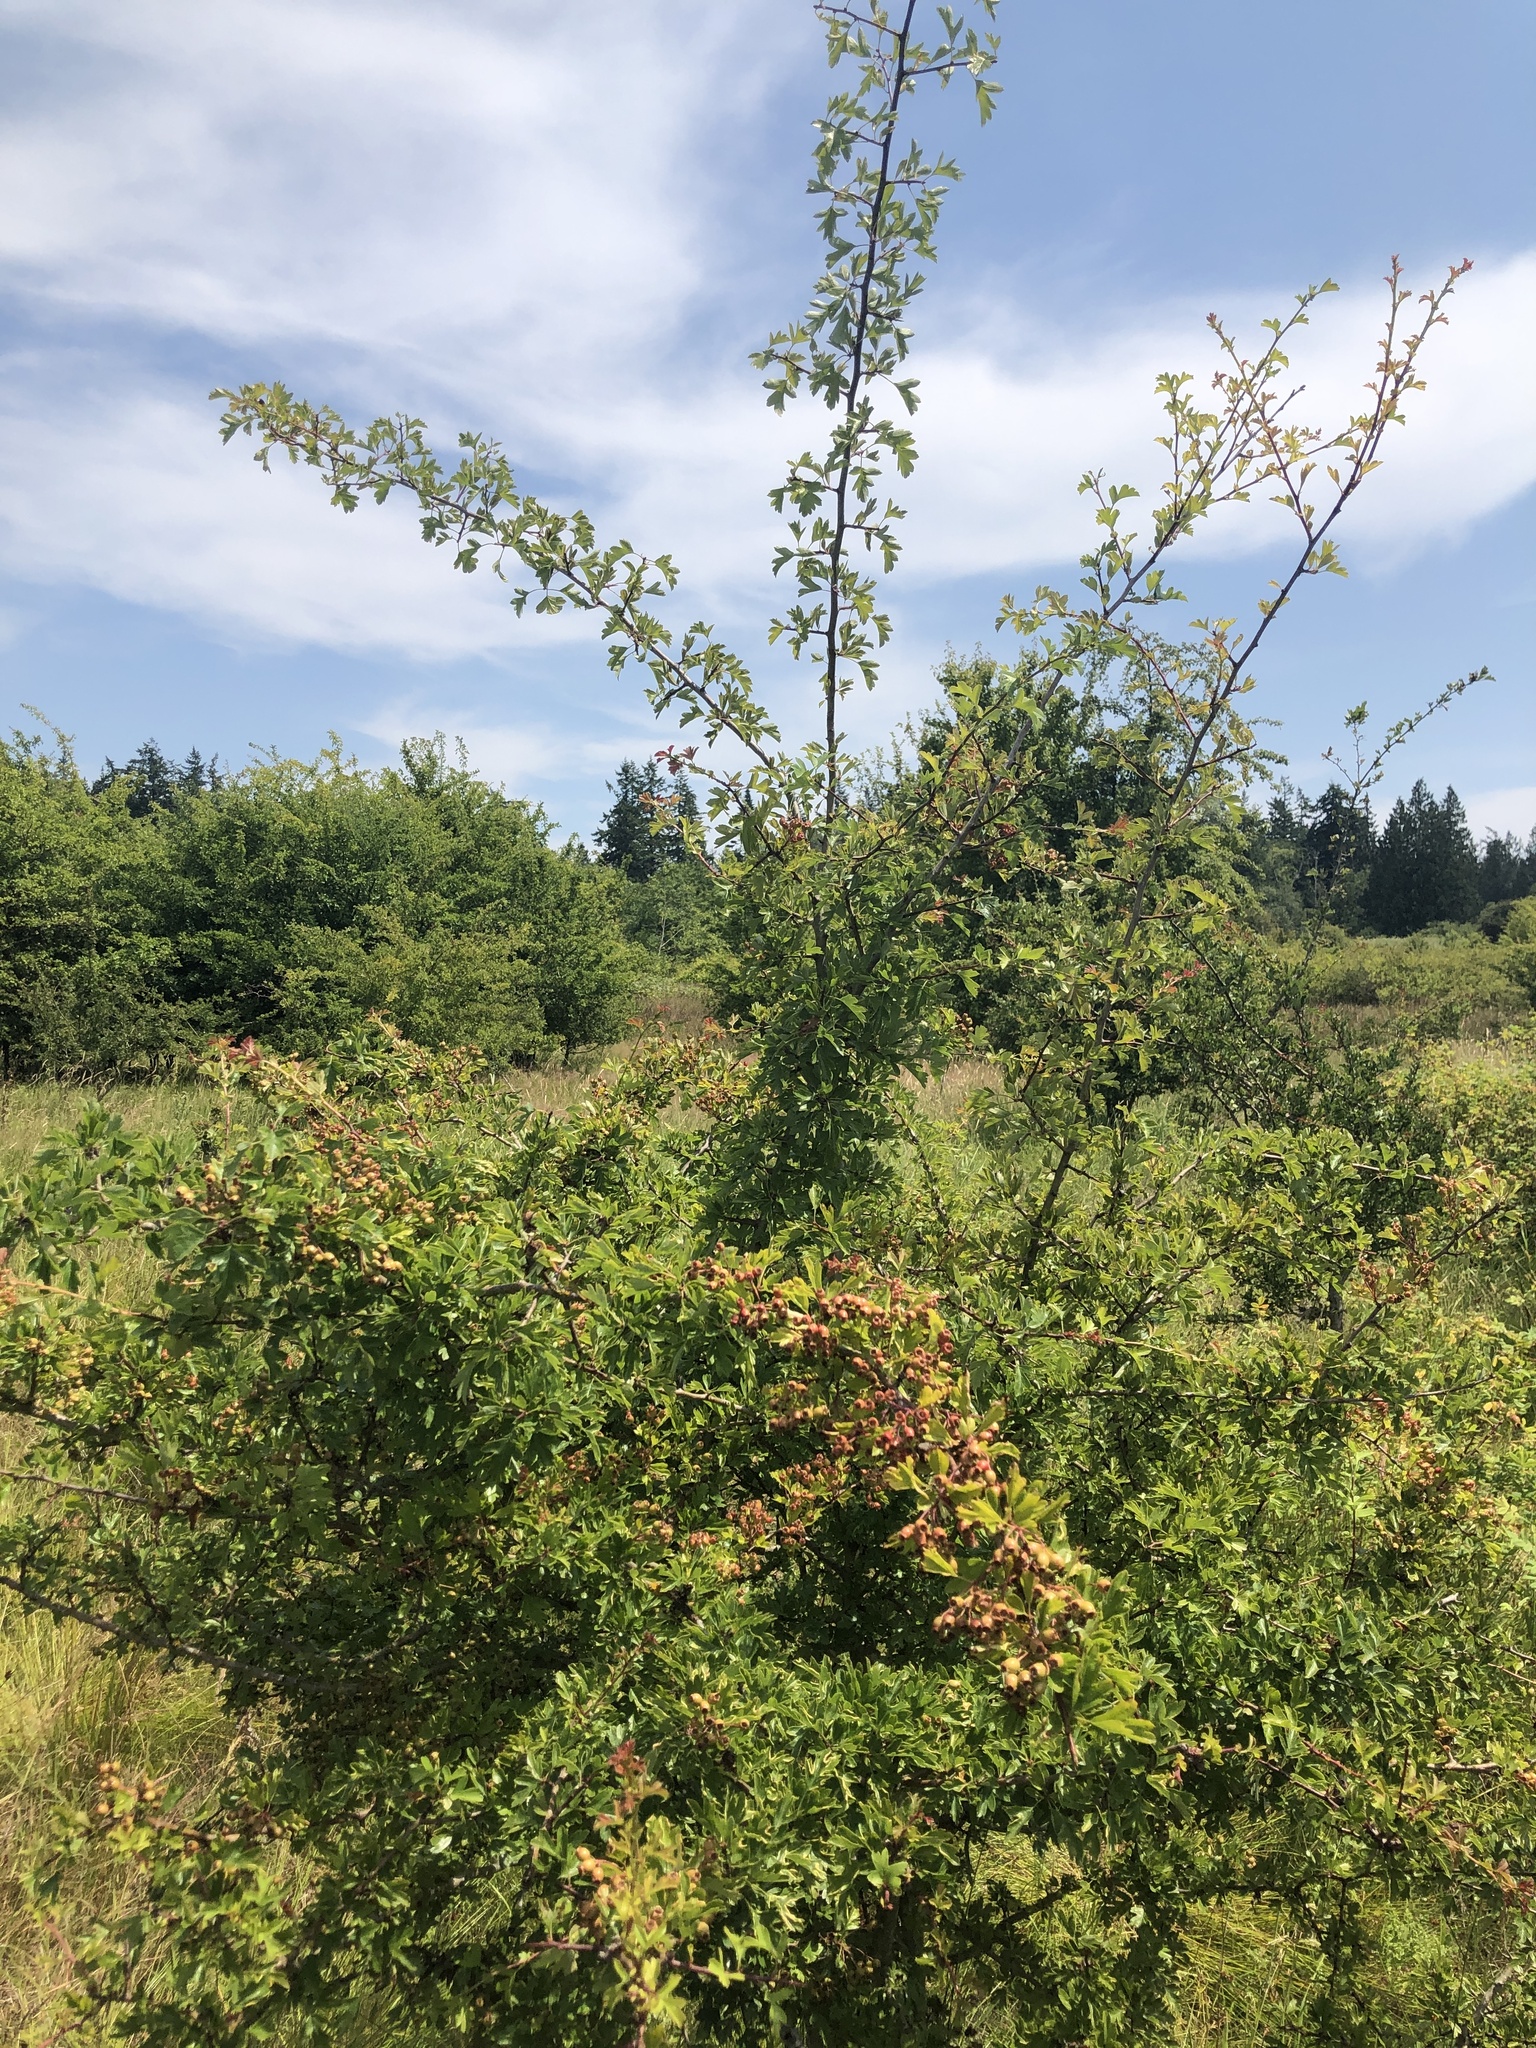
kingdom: Plantae
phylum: Tracheophyta
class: Magnoliopsida
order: Rosales
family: Rosaceae
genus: Crataegus
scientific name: Crataegus monogyna
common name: Hawthorn
